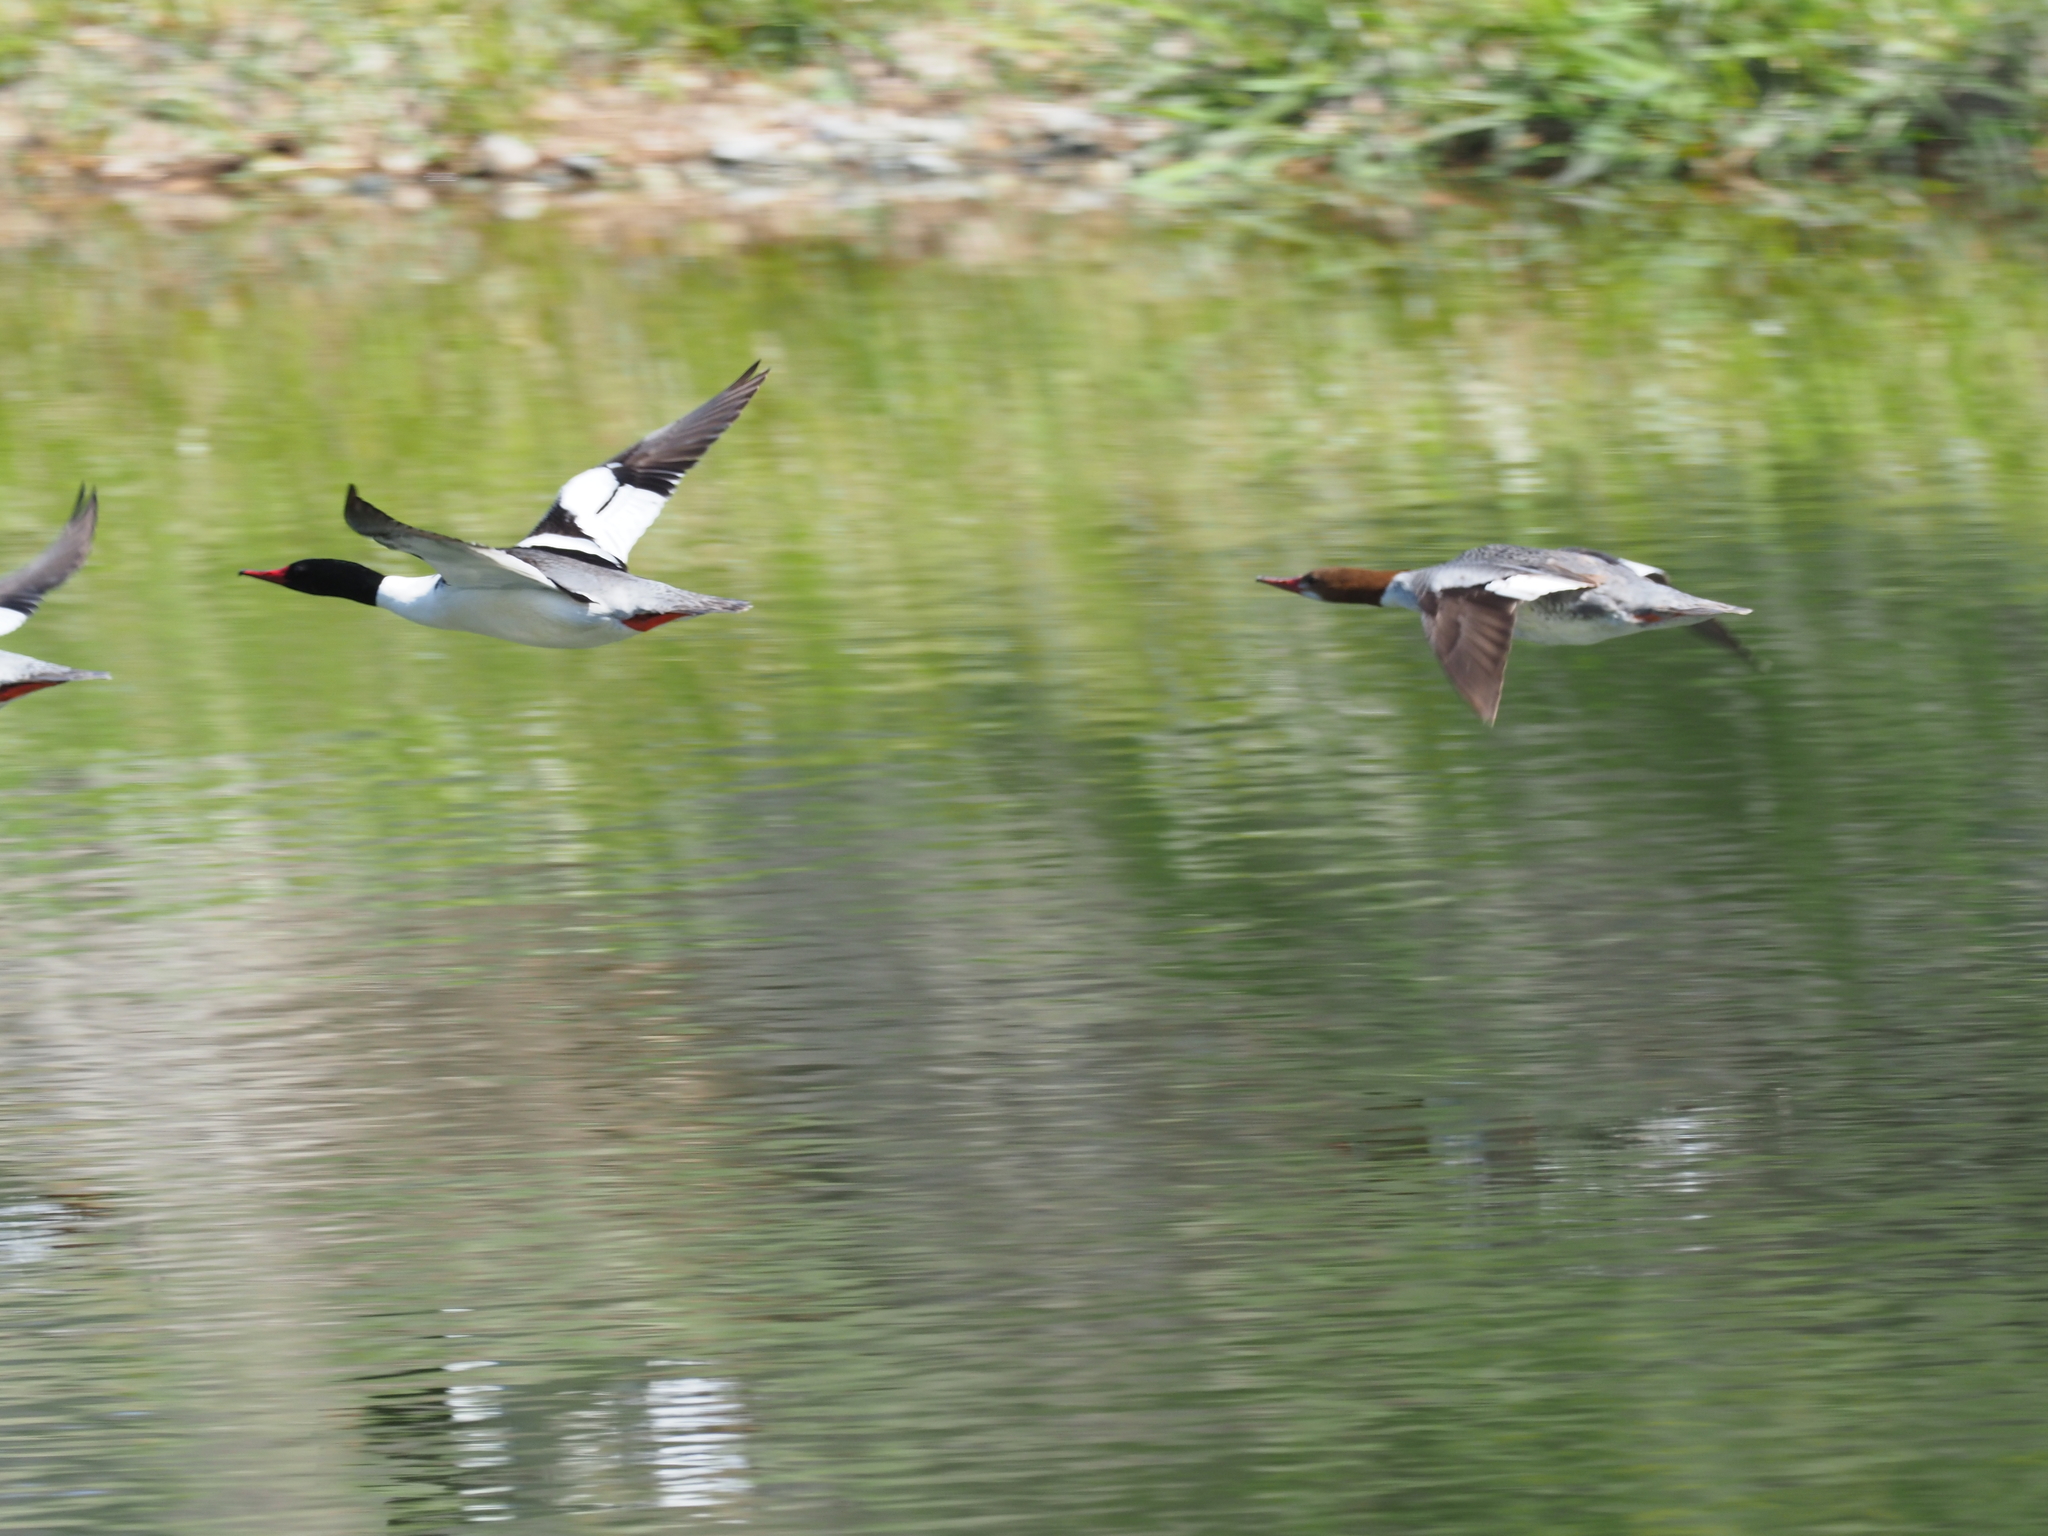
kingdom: Animalia
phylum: Chordata
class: Aves
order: Anseriformes
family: Anatidae
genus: Mergus
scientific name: Mergus merganser
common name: Common merganser
